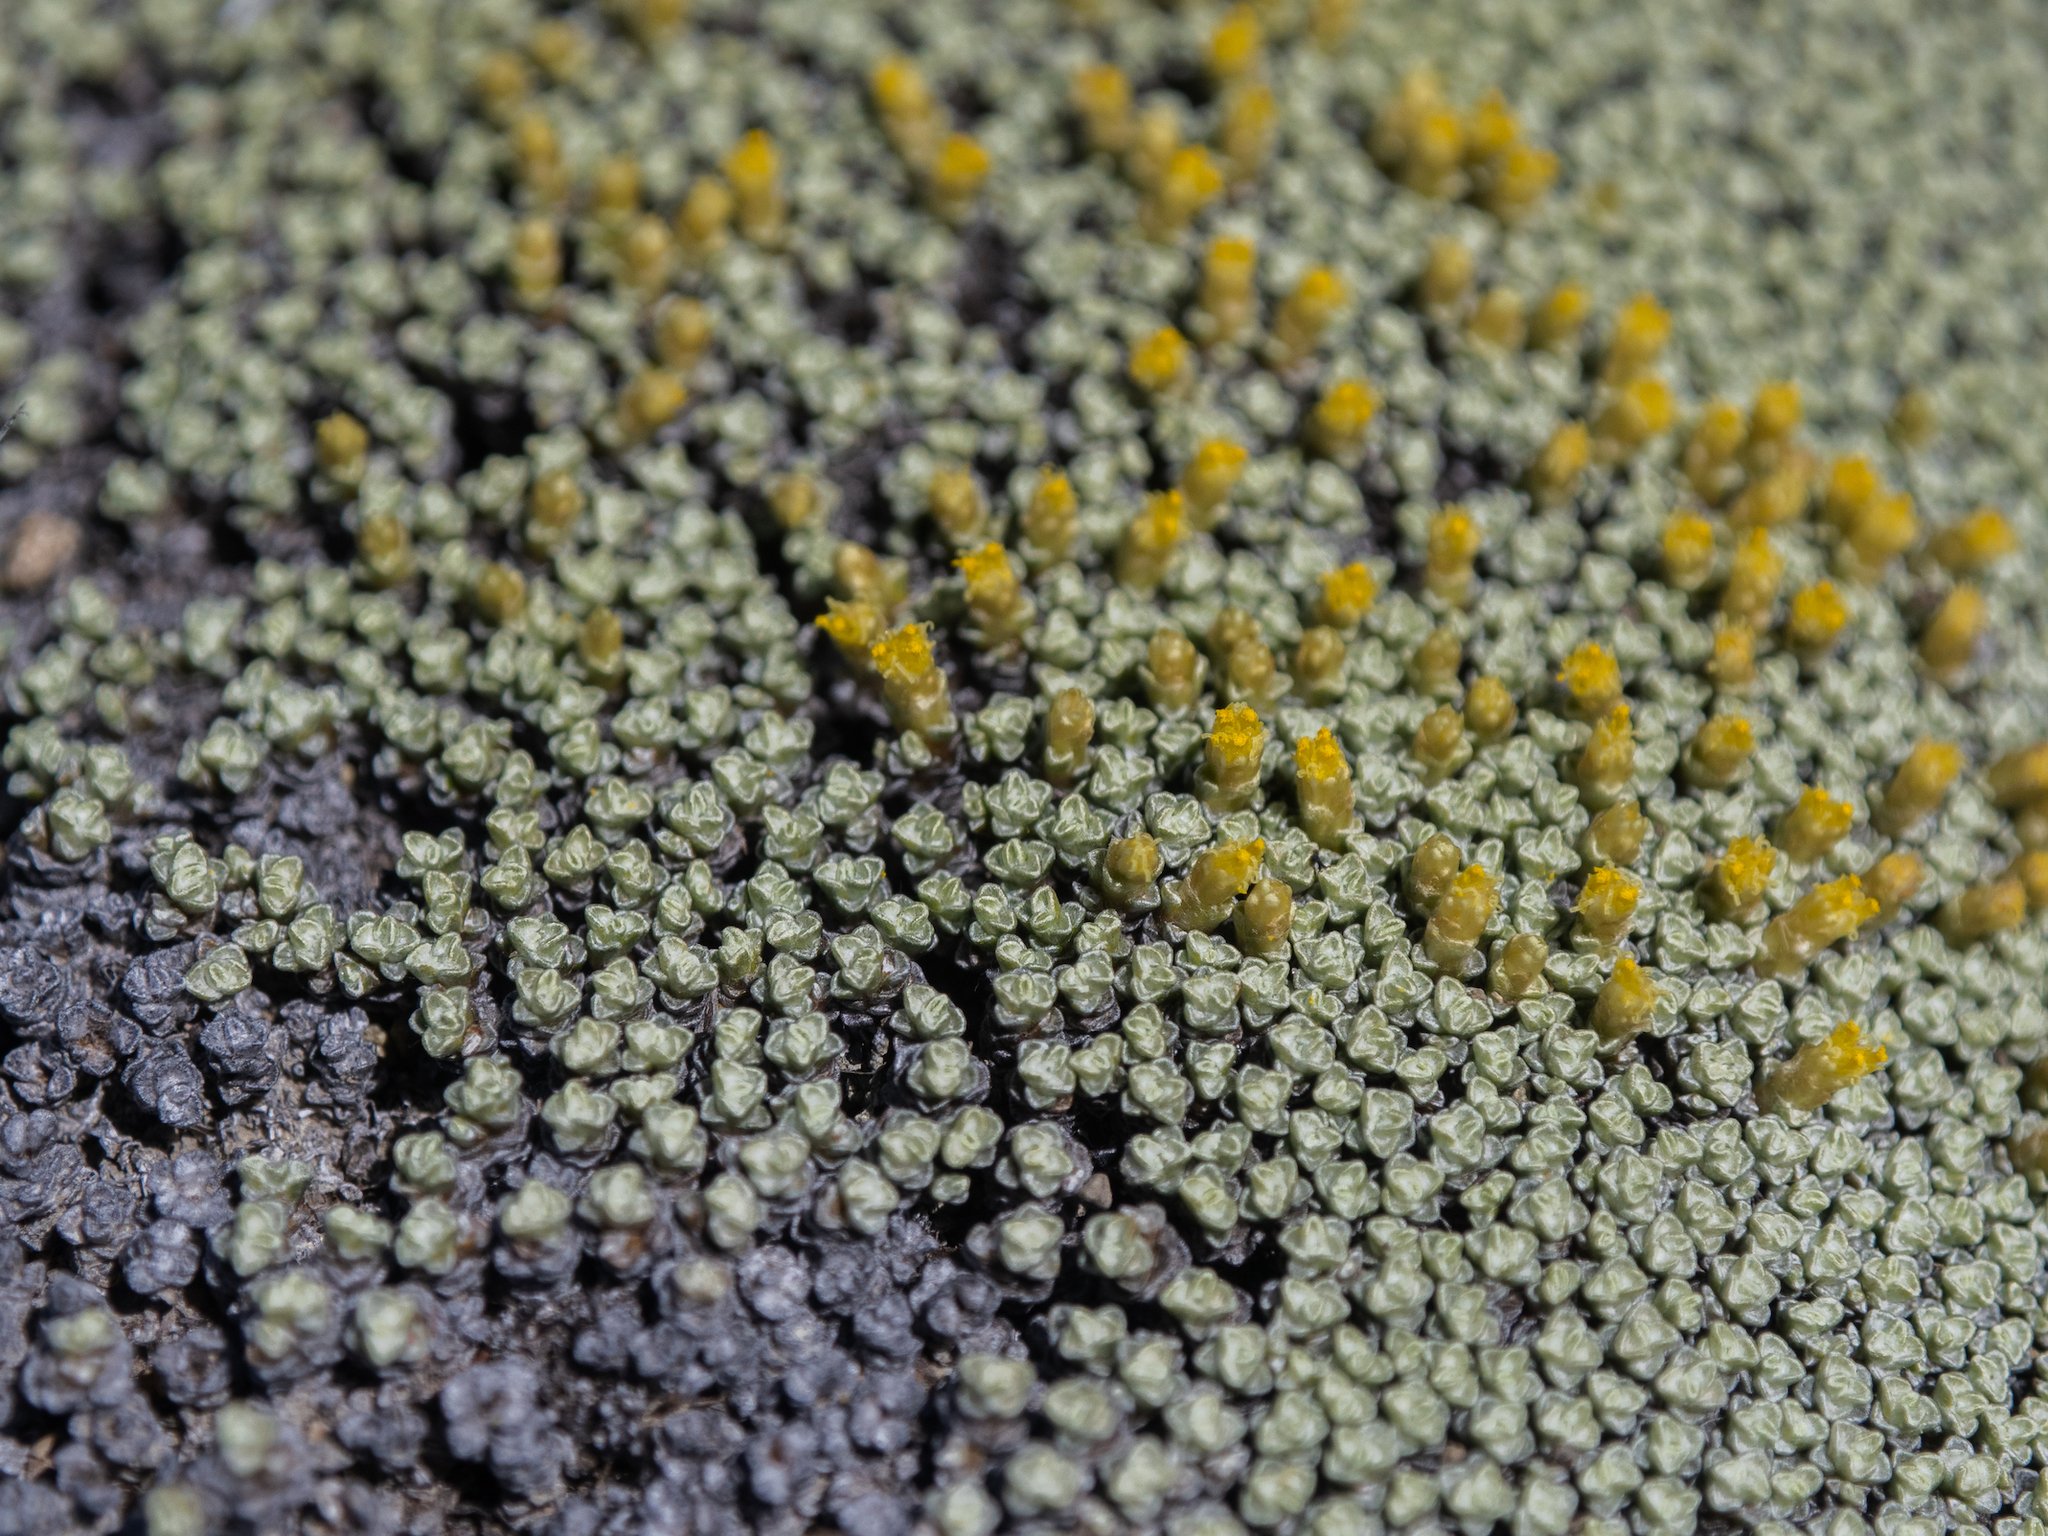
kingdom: Plantae
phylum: Tracheophyta
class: Magnoliopsida
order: Asterales
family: Asteraceae
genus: Raoulia
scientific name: Raoulia australis
